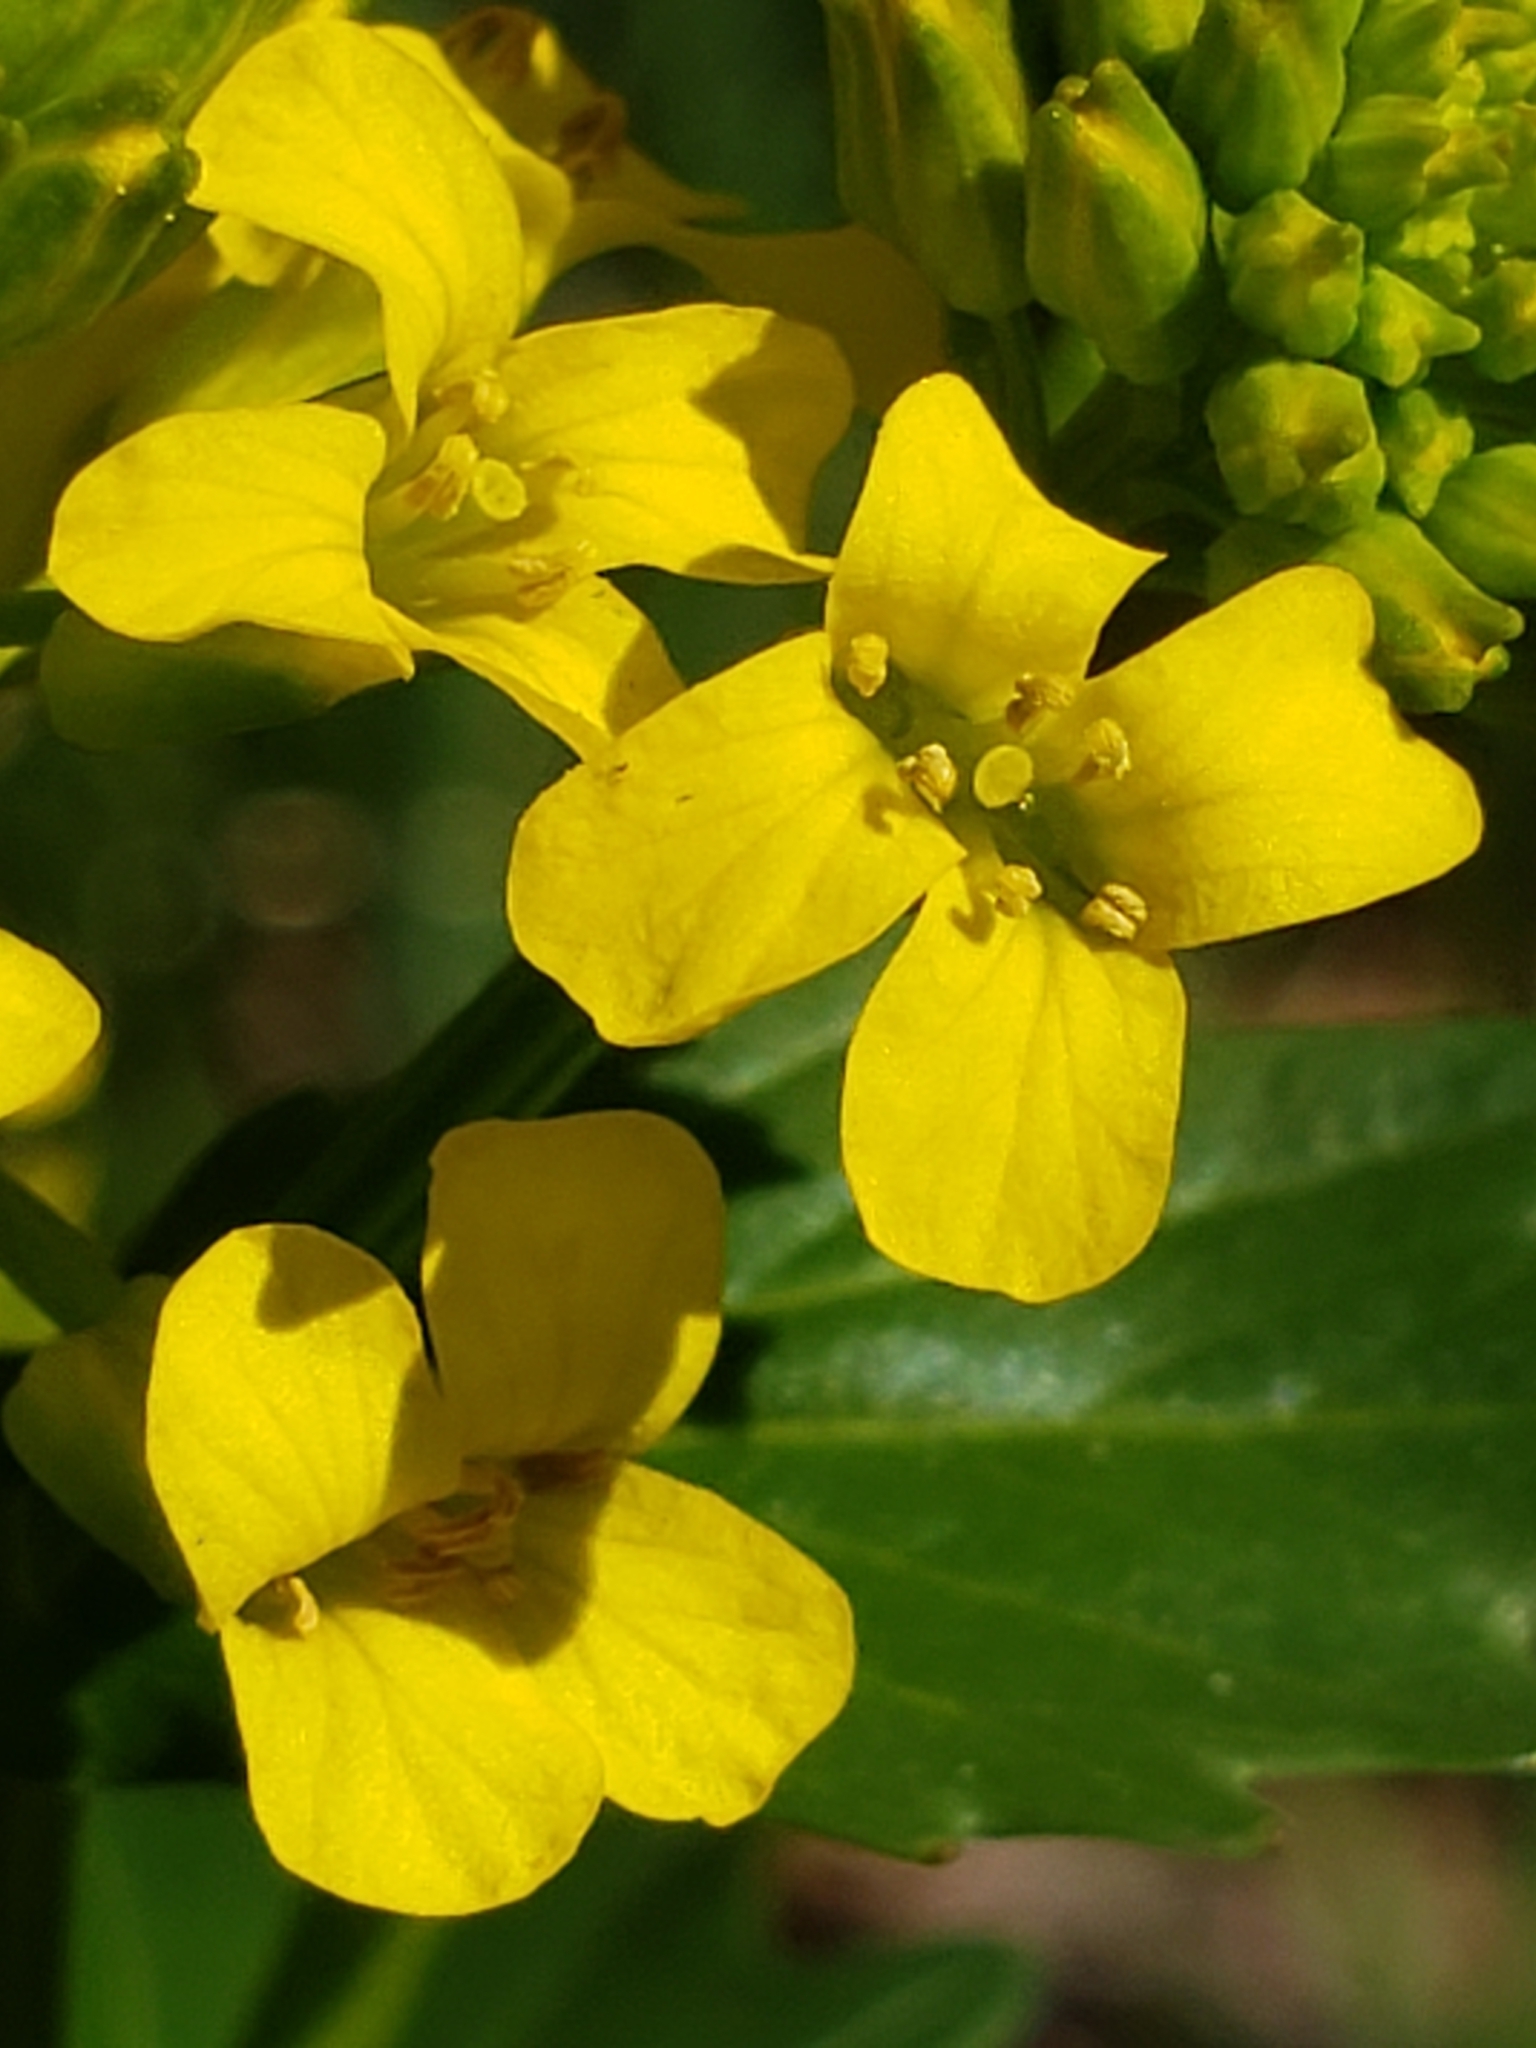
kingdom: Plantae
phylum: Tracheophyta
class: Magnoliopsida
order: Brassicales
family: Brassicaceae
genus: Barbarea
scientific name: Barbarea vulgaris
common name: Cressy-greens
